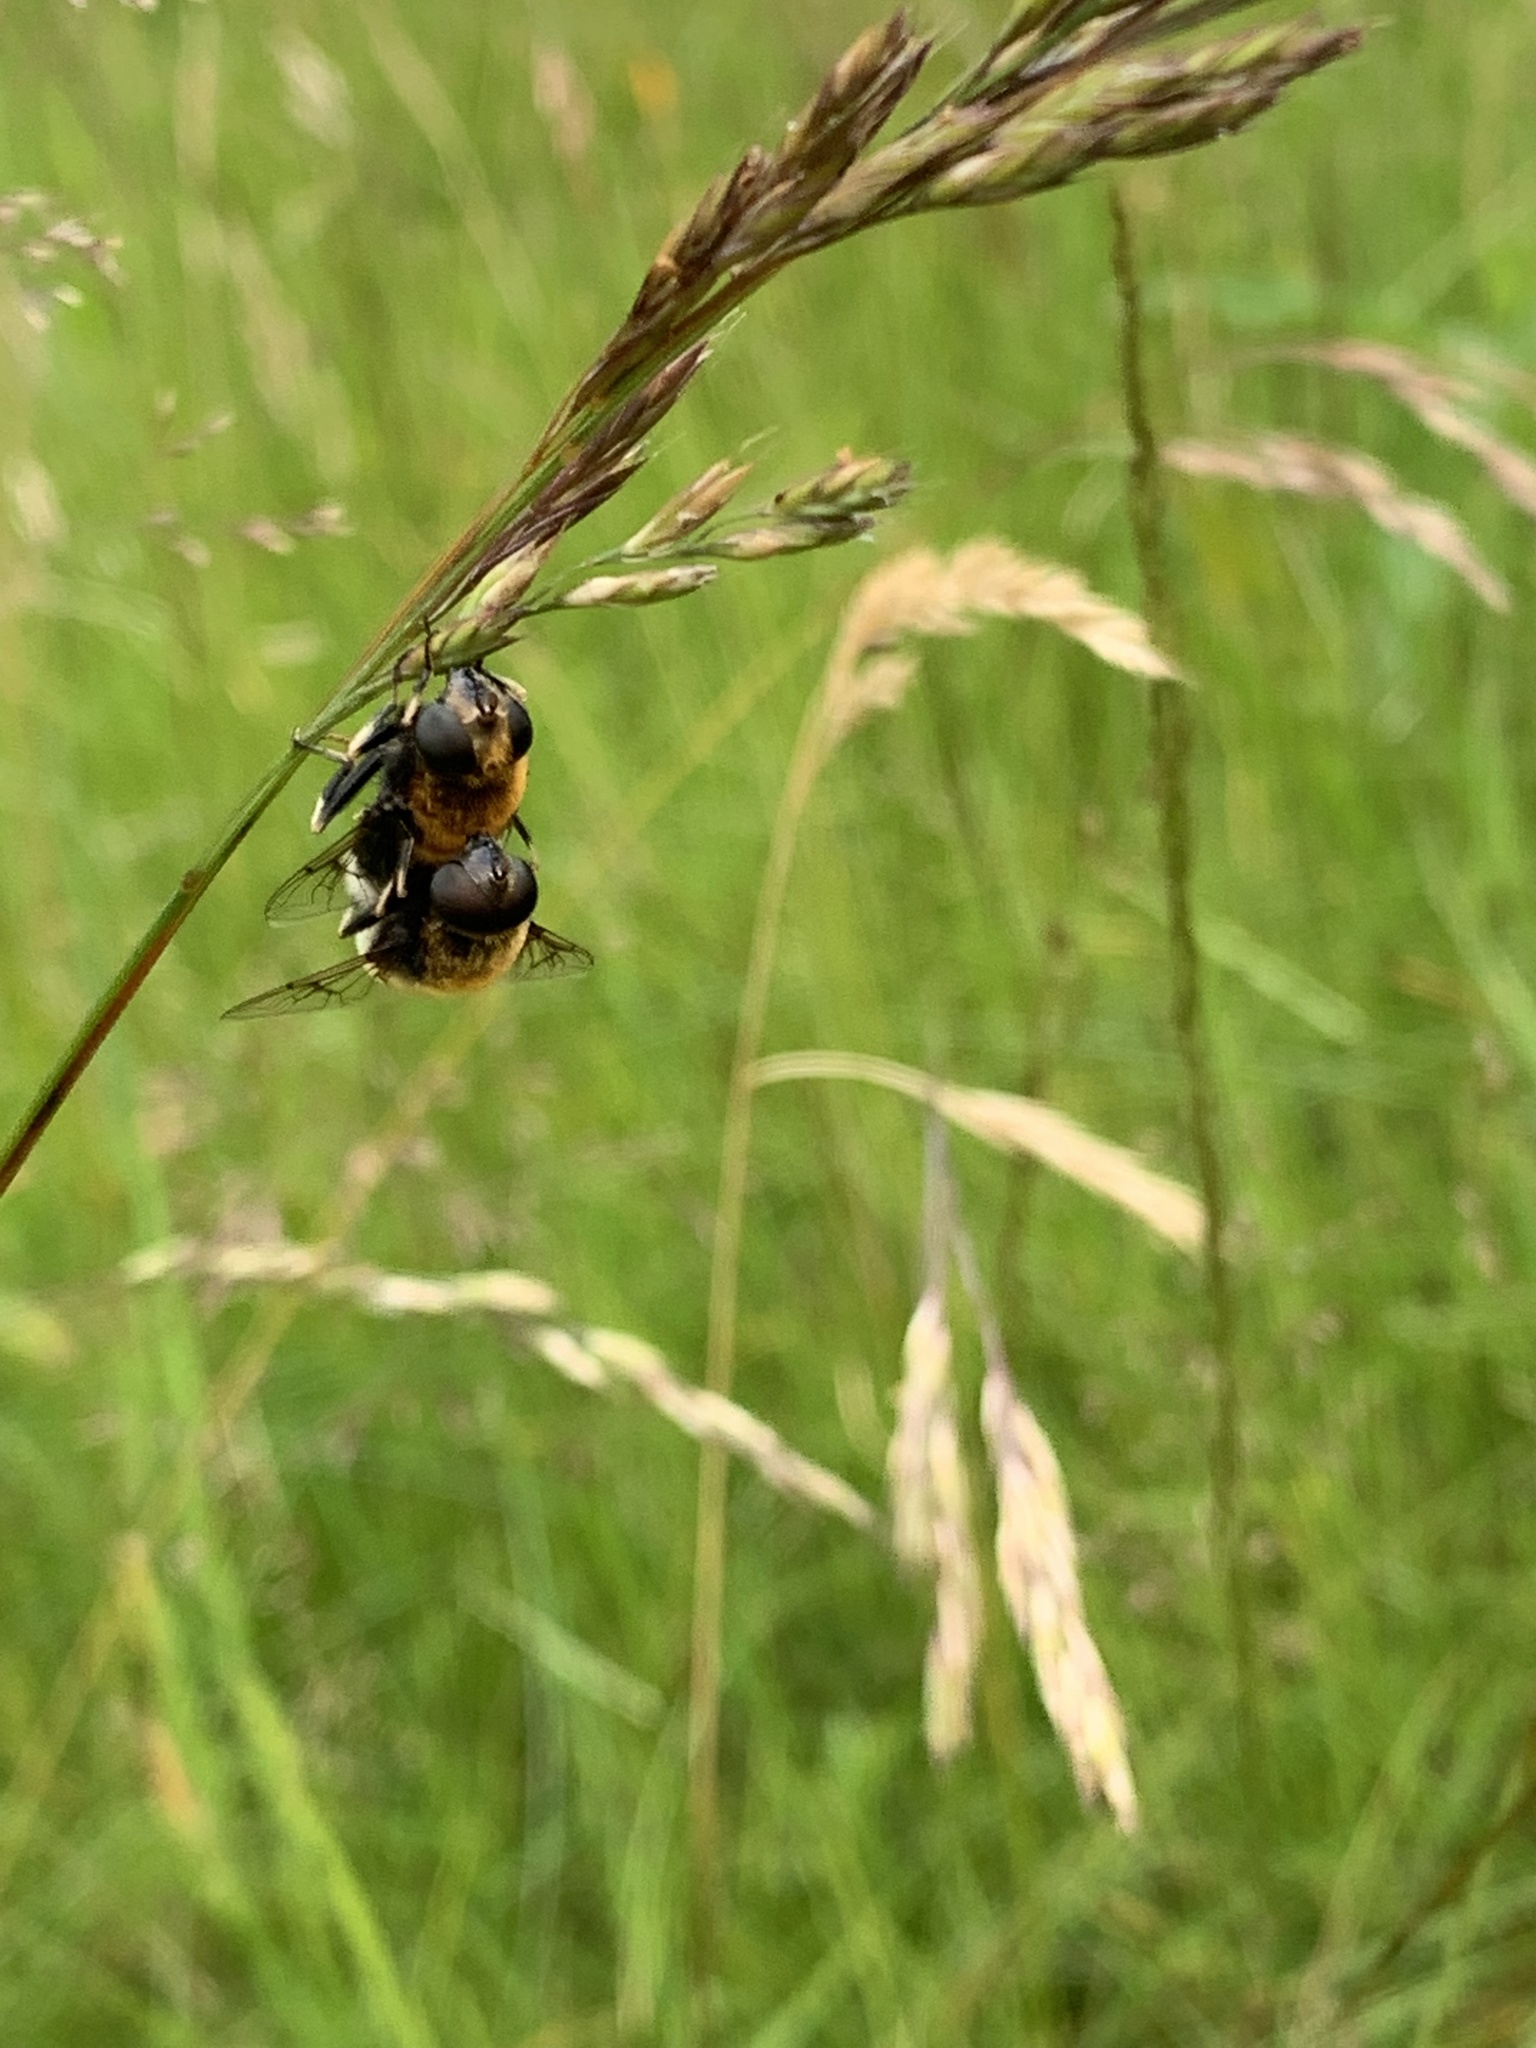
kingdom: Animalia
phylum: Arthropoda
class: Insecta
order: Diptera
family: Syrphidae
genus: Eristalis
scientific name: Eristalis intricaria
